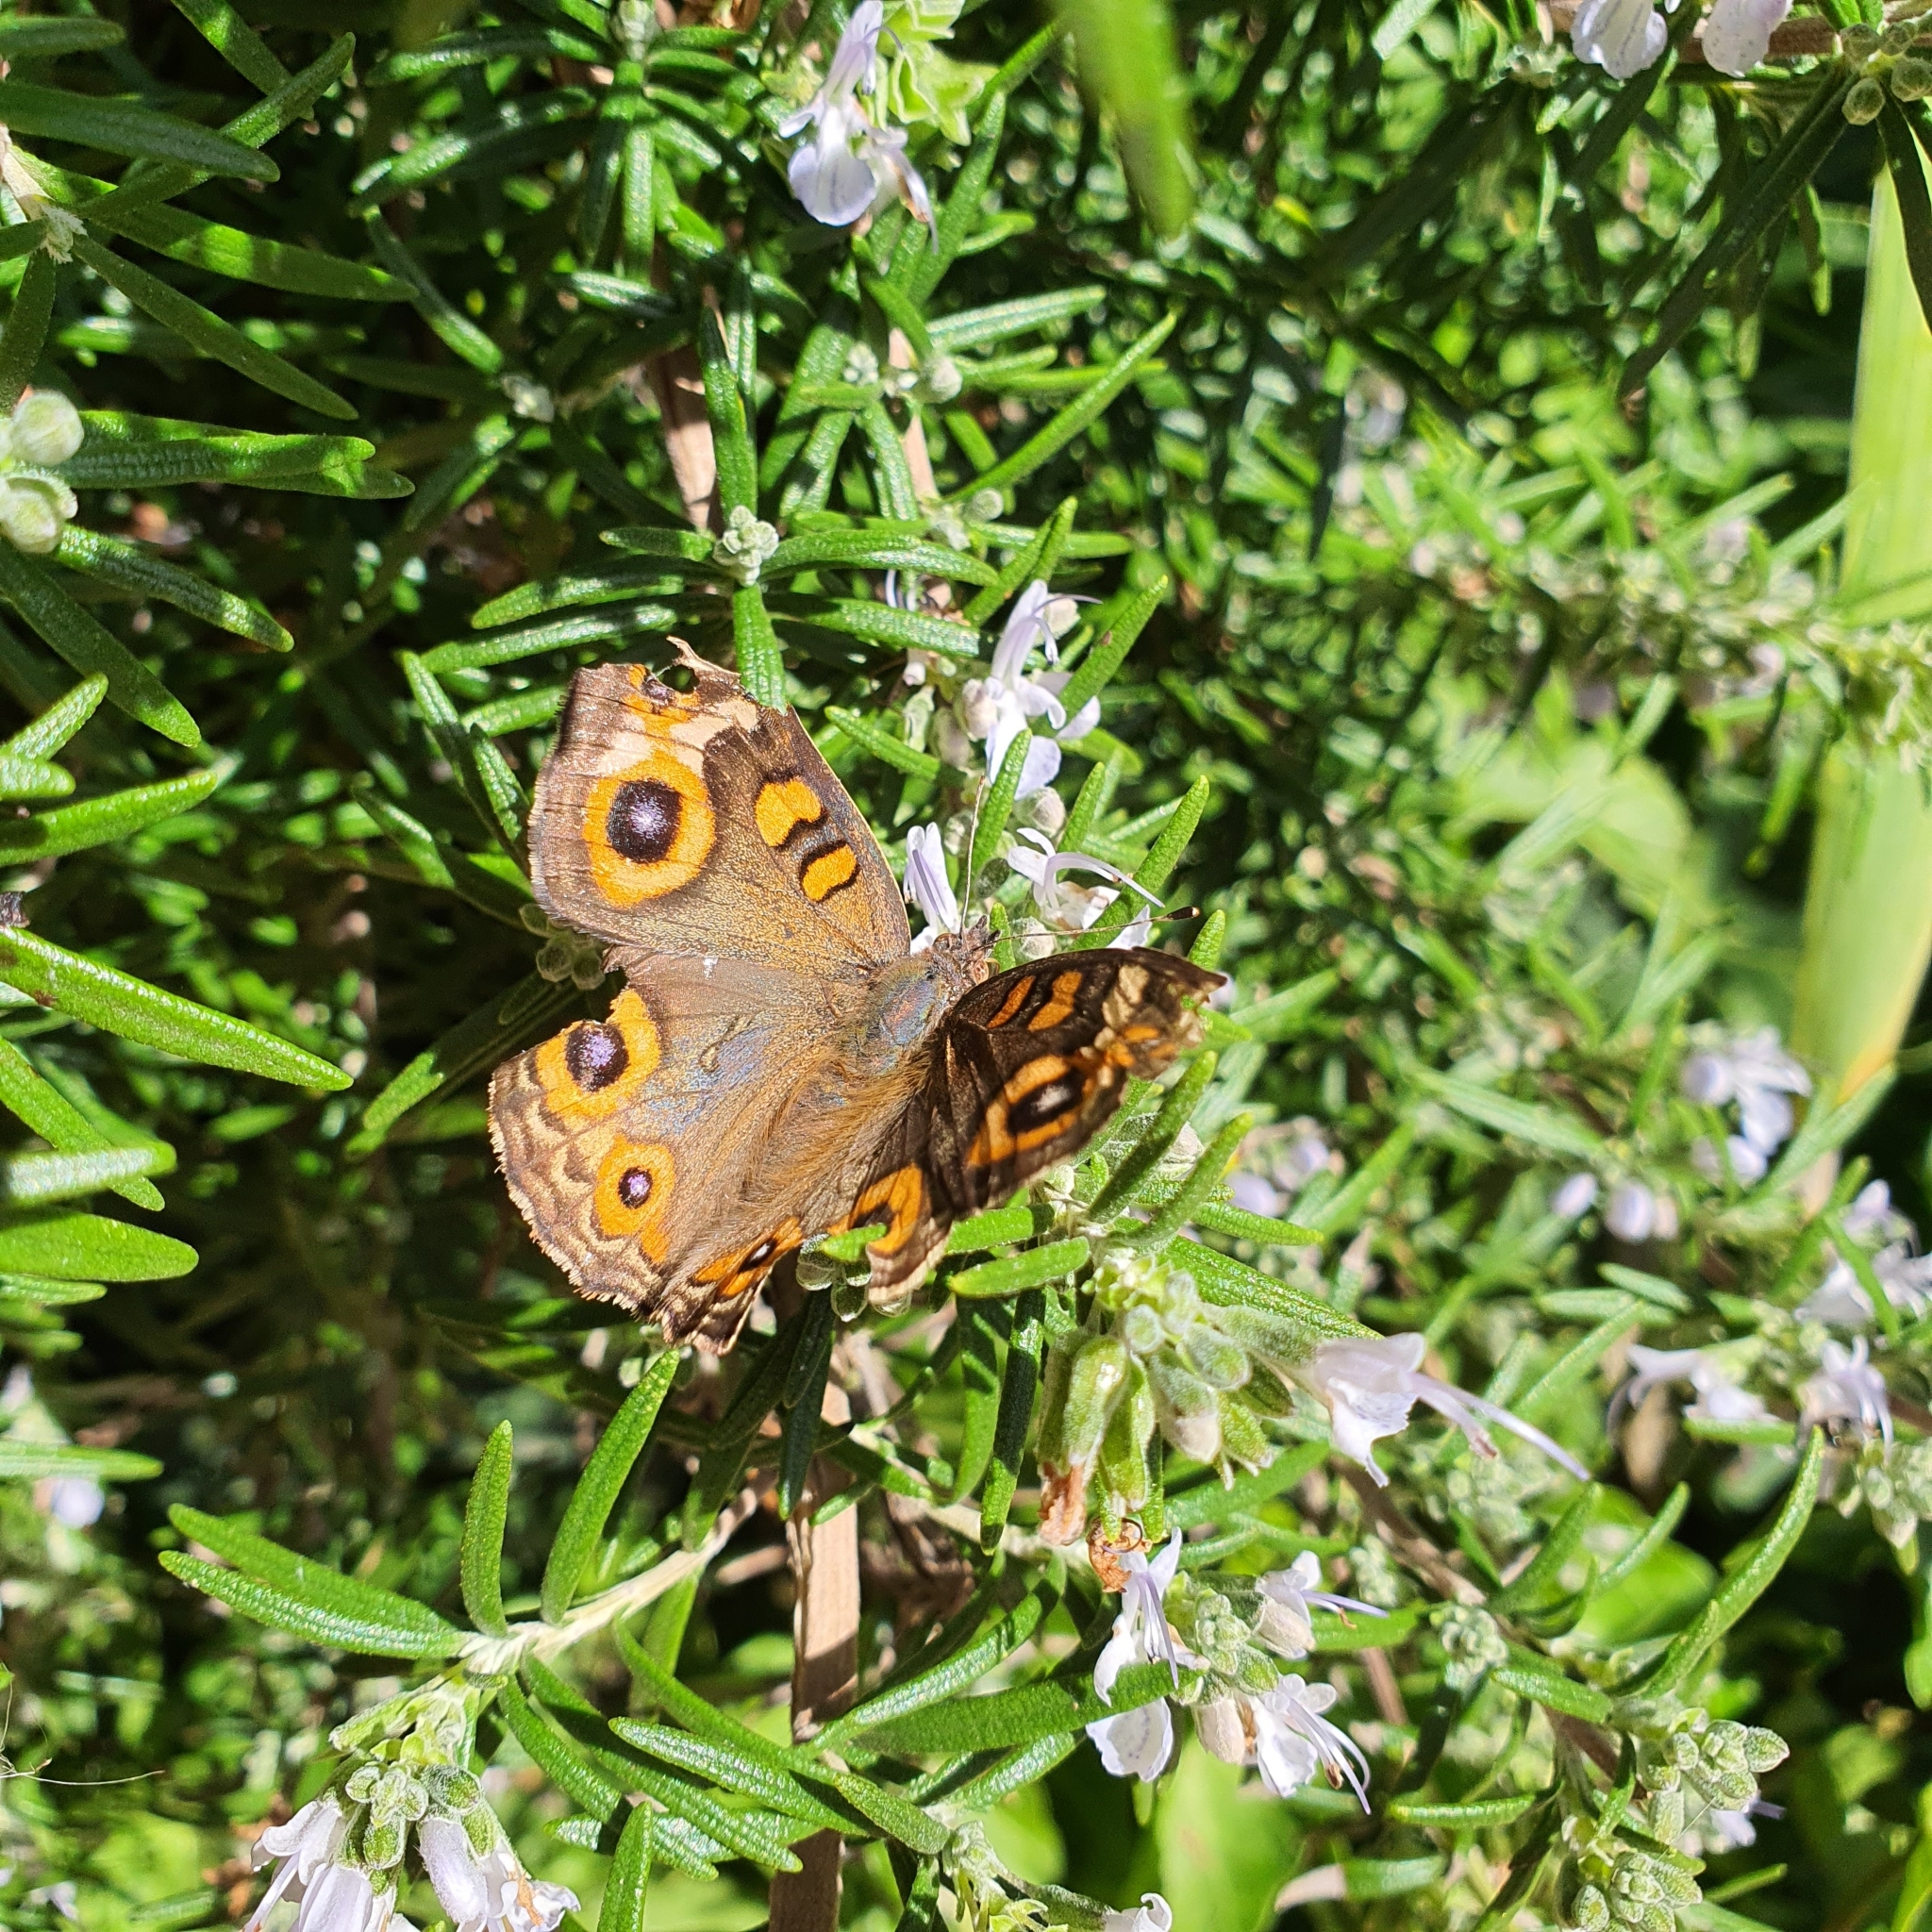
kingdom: Animalia
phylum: Arthropoda
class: Insecta
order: Lepidoptera
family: Nymphalidae
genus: Junonia
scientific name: Junonia villida
